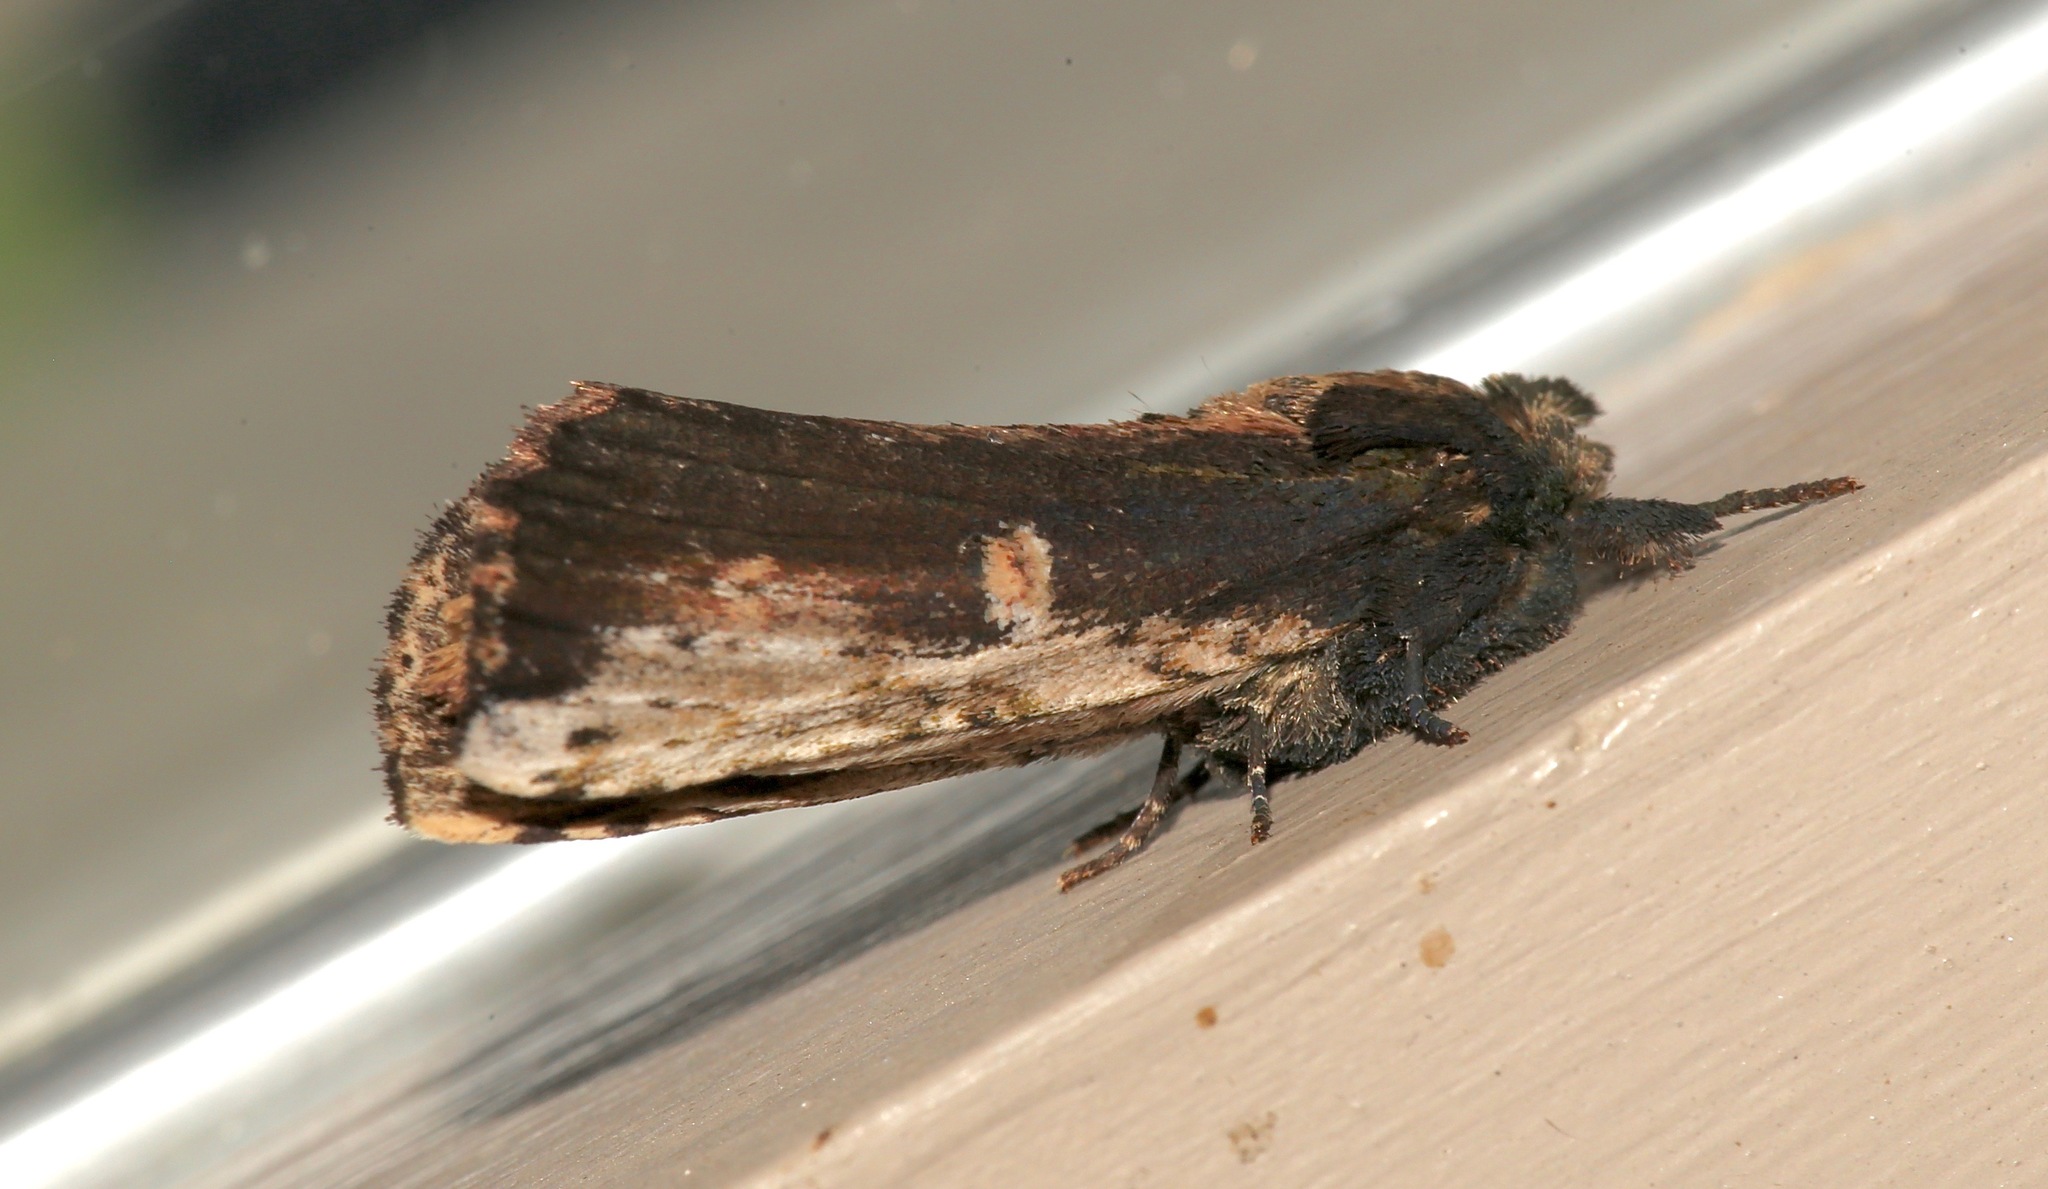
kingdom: Animalia
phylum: Arthropoda
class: Insecta
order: Lepidoptera
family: Notodontidae
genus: Schizura
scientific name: Schizura ipomaeae
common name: Morning-glory prominent
